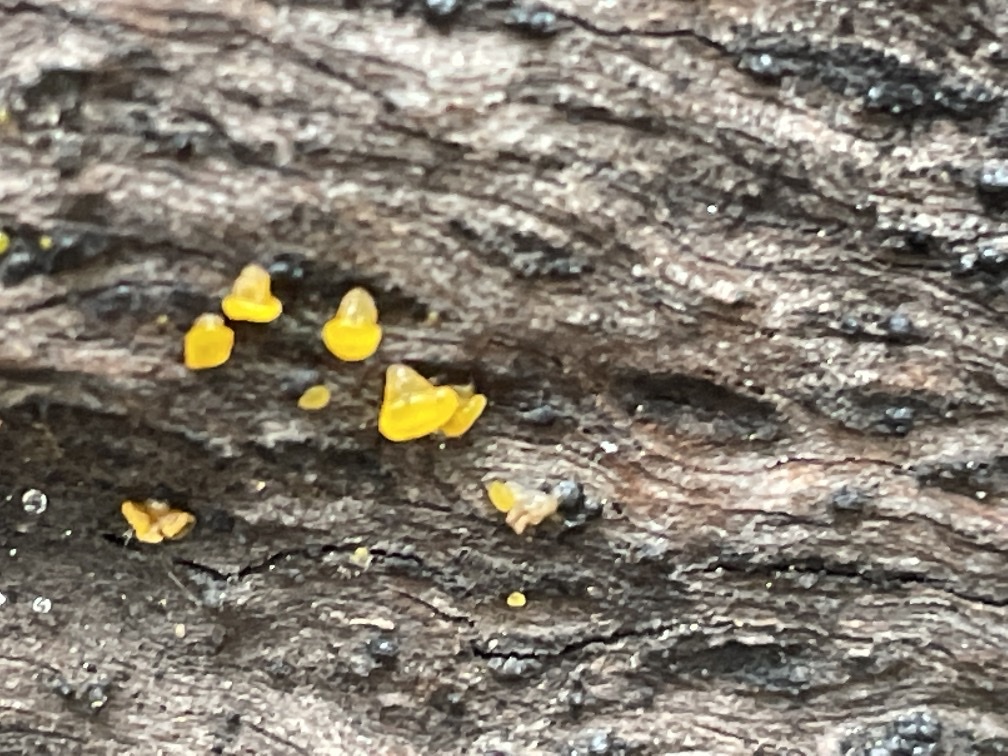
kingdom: Fungi
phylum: Basidiomycota
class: Dacrymycetes
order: Dacrymycetales
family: Dacrymycetaceae
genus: Dacrymyces
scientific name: Dacrymyces capitatus
